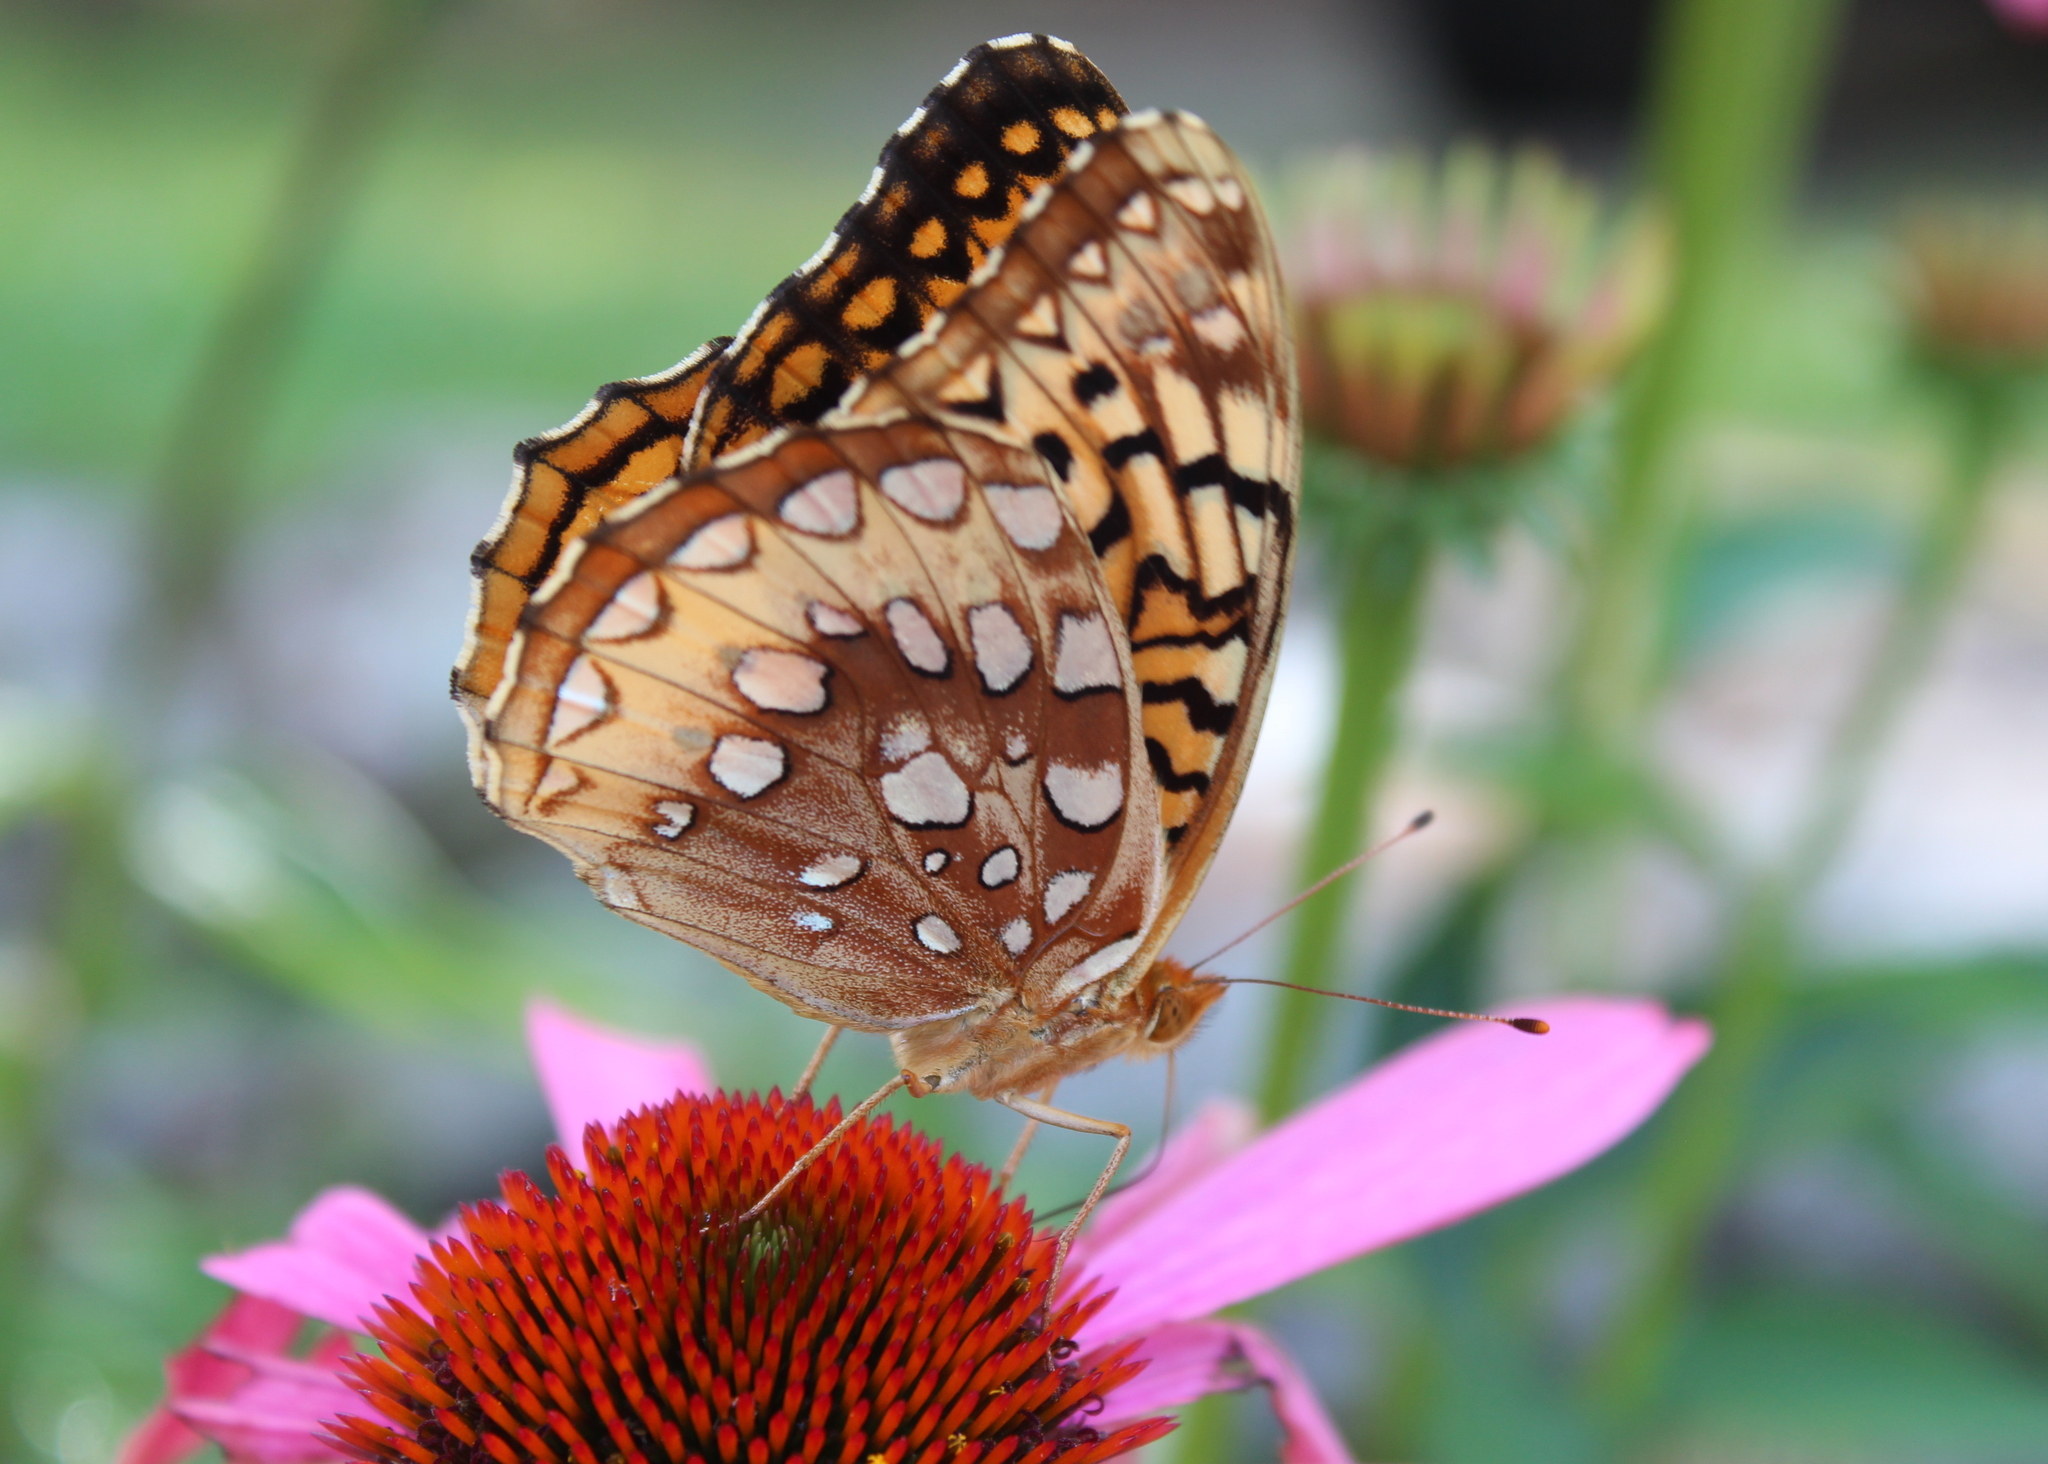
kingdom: Animalia
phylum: Arthropoda
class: Insecta
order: Lepidoptera
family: Nymphalidae
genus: Speyeria
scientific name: Speyeria cybele
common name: Great spangled fritillary
